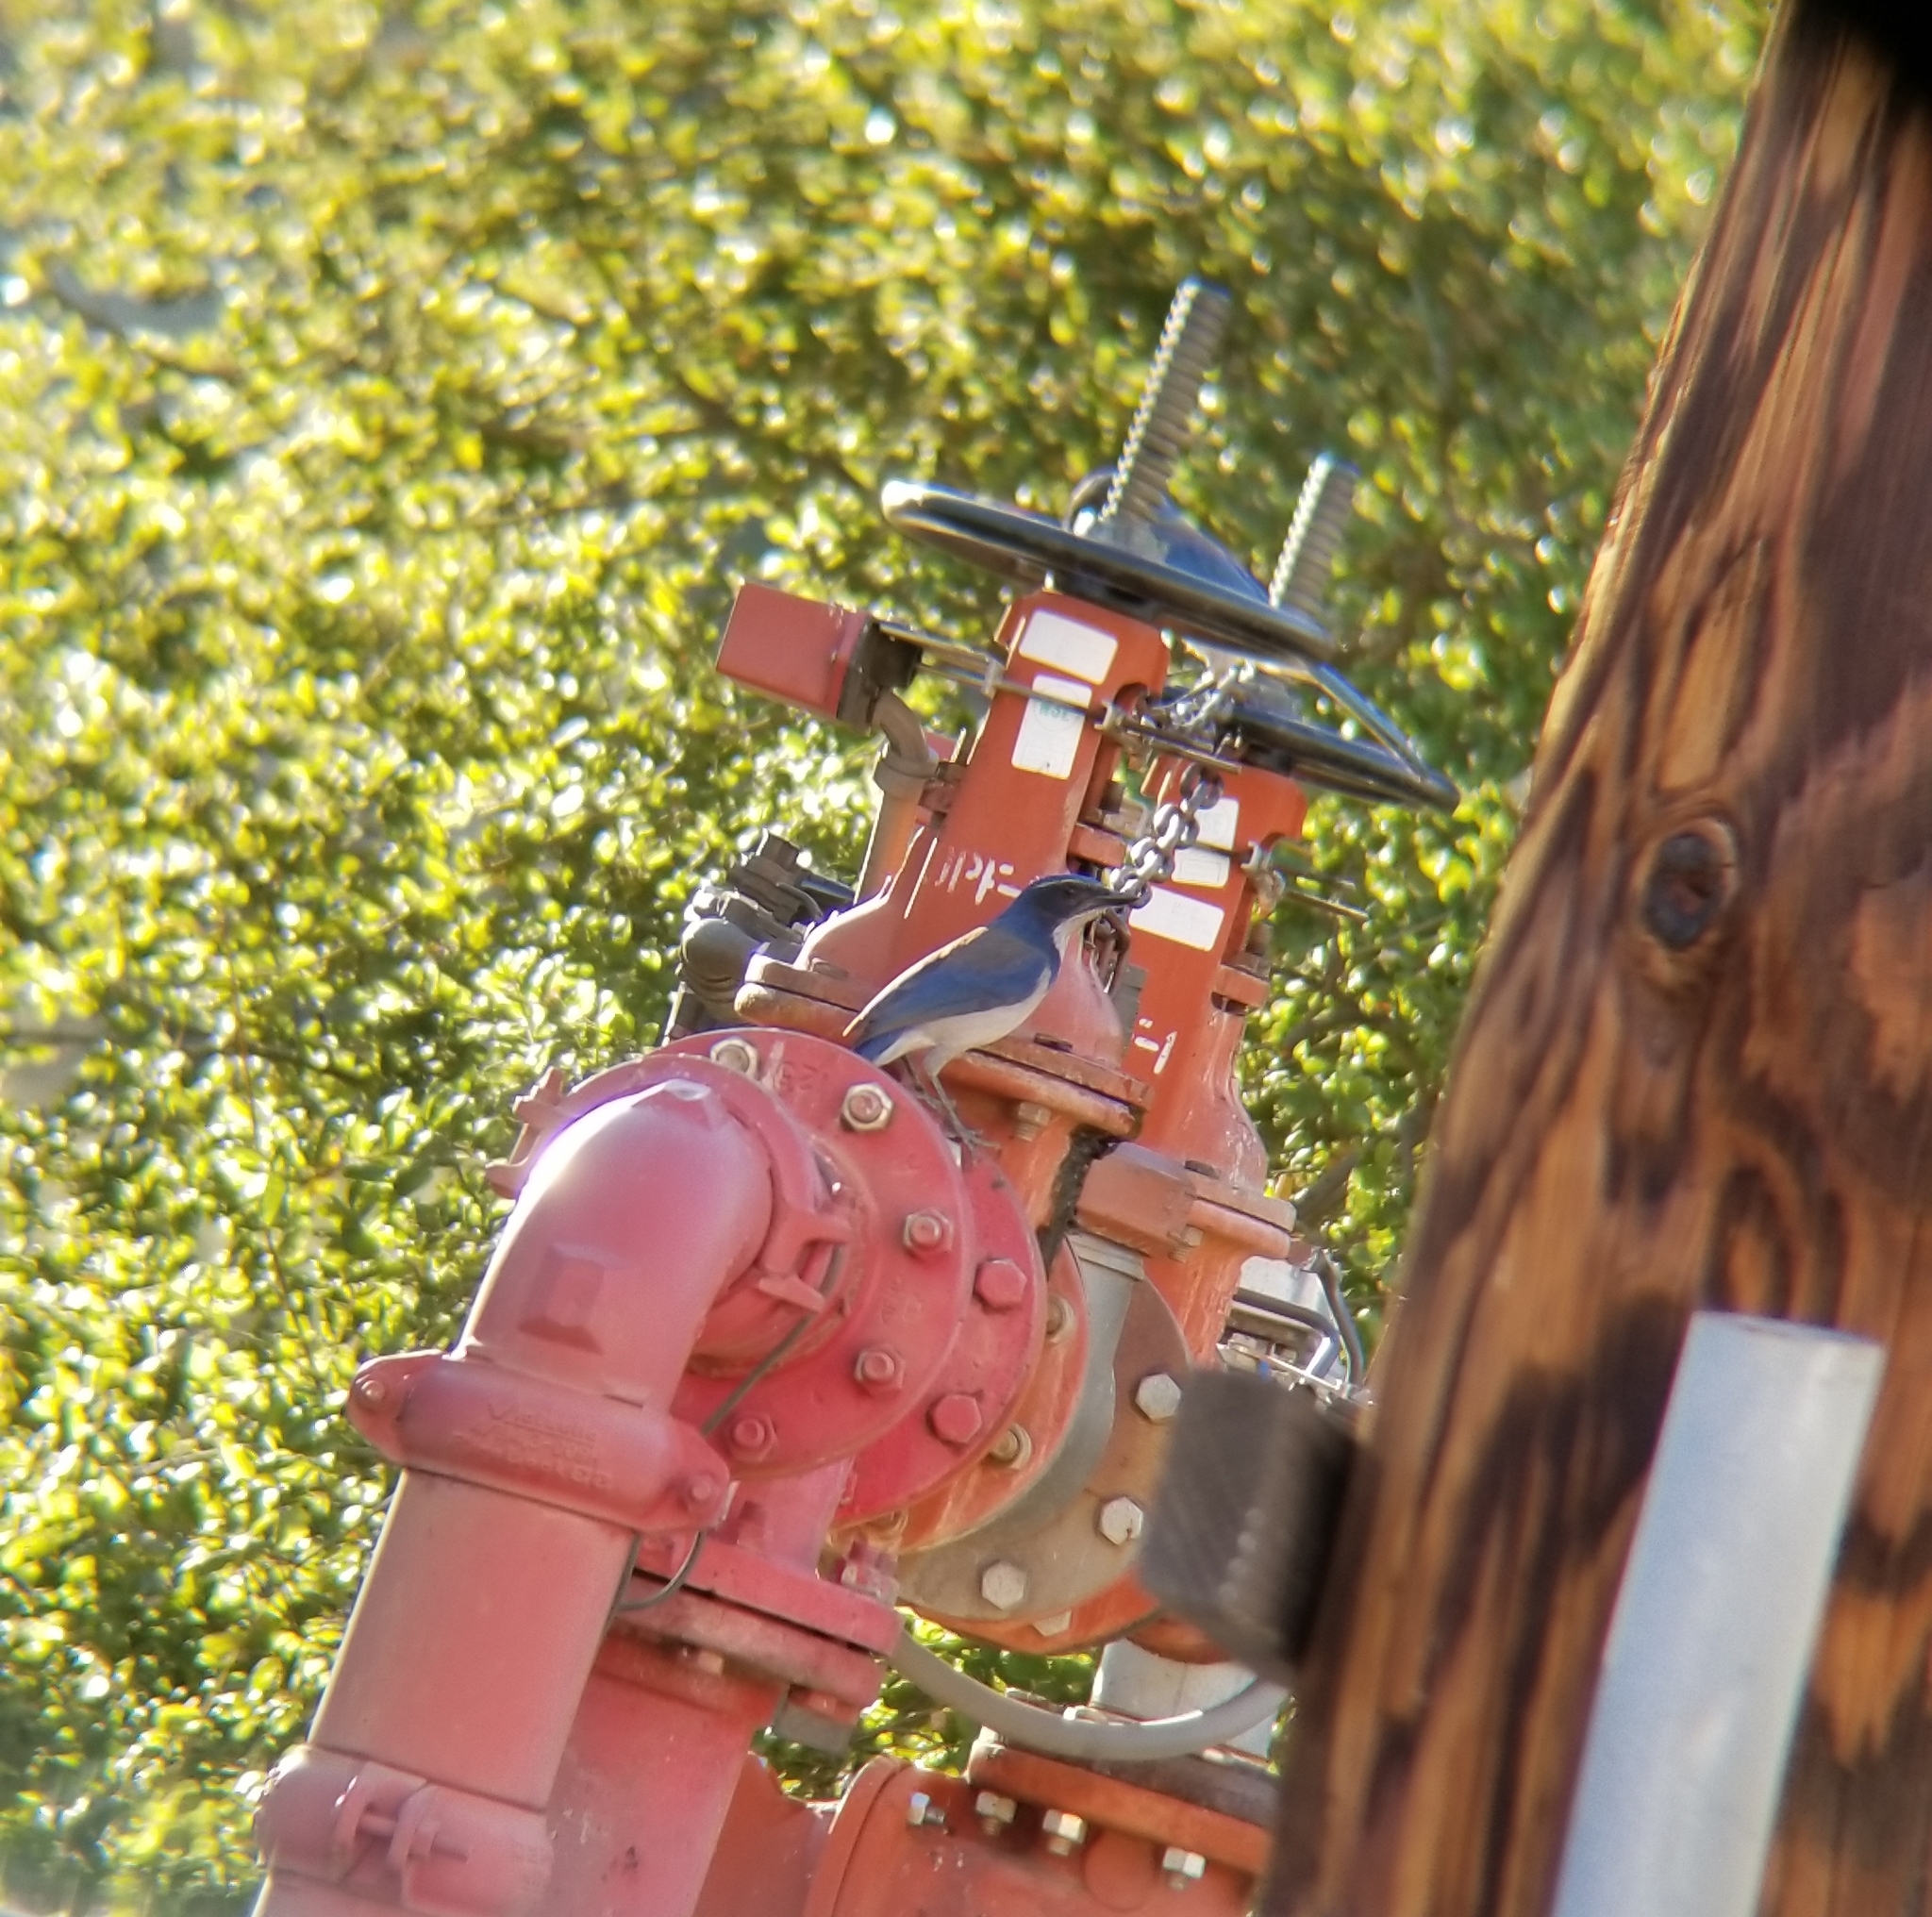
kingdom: Animalia
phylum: Chordata
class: Aves
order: Passeriformes
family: Corvidae
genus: Aphelocoma
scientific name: Aphelocoma californica
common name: California scrub-jay
